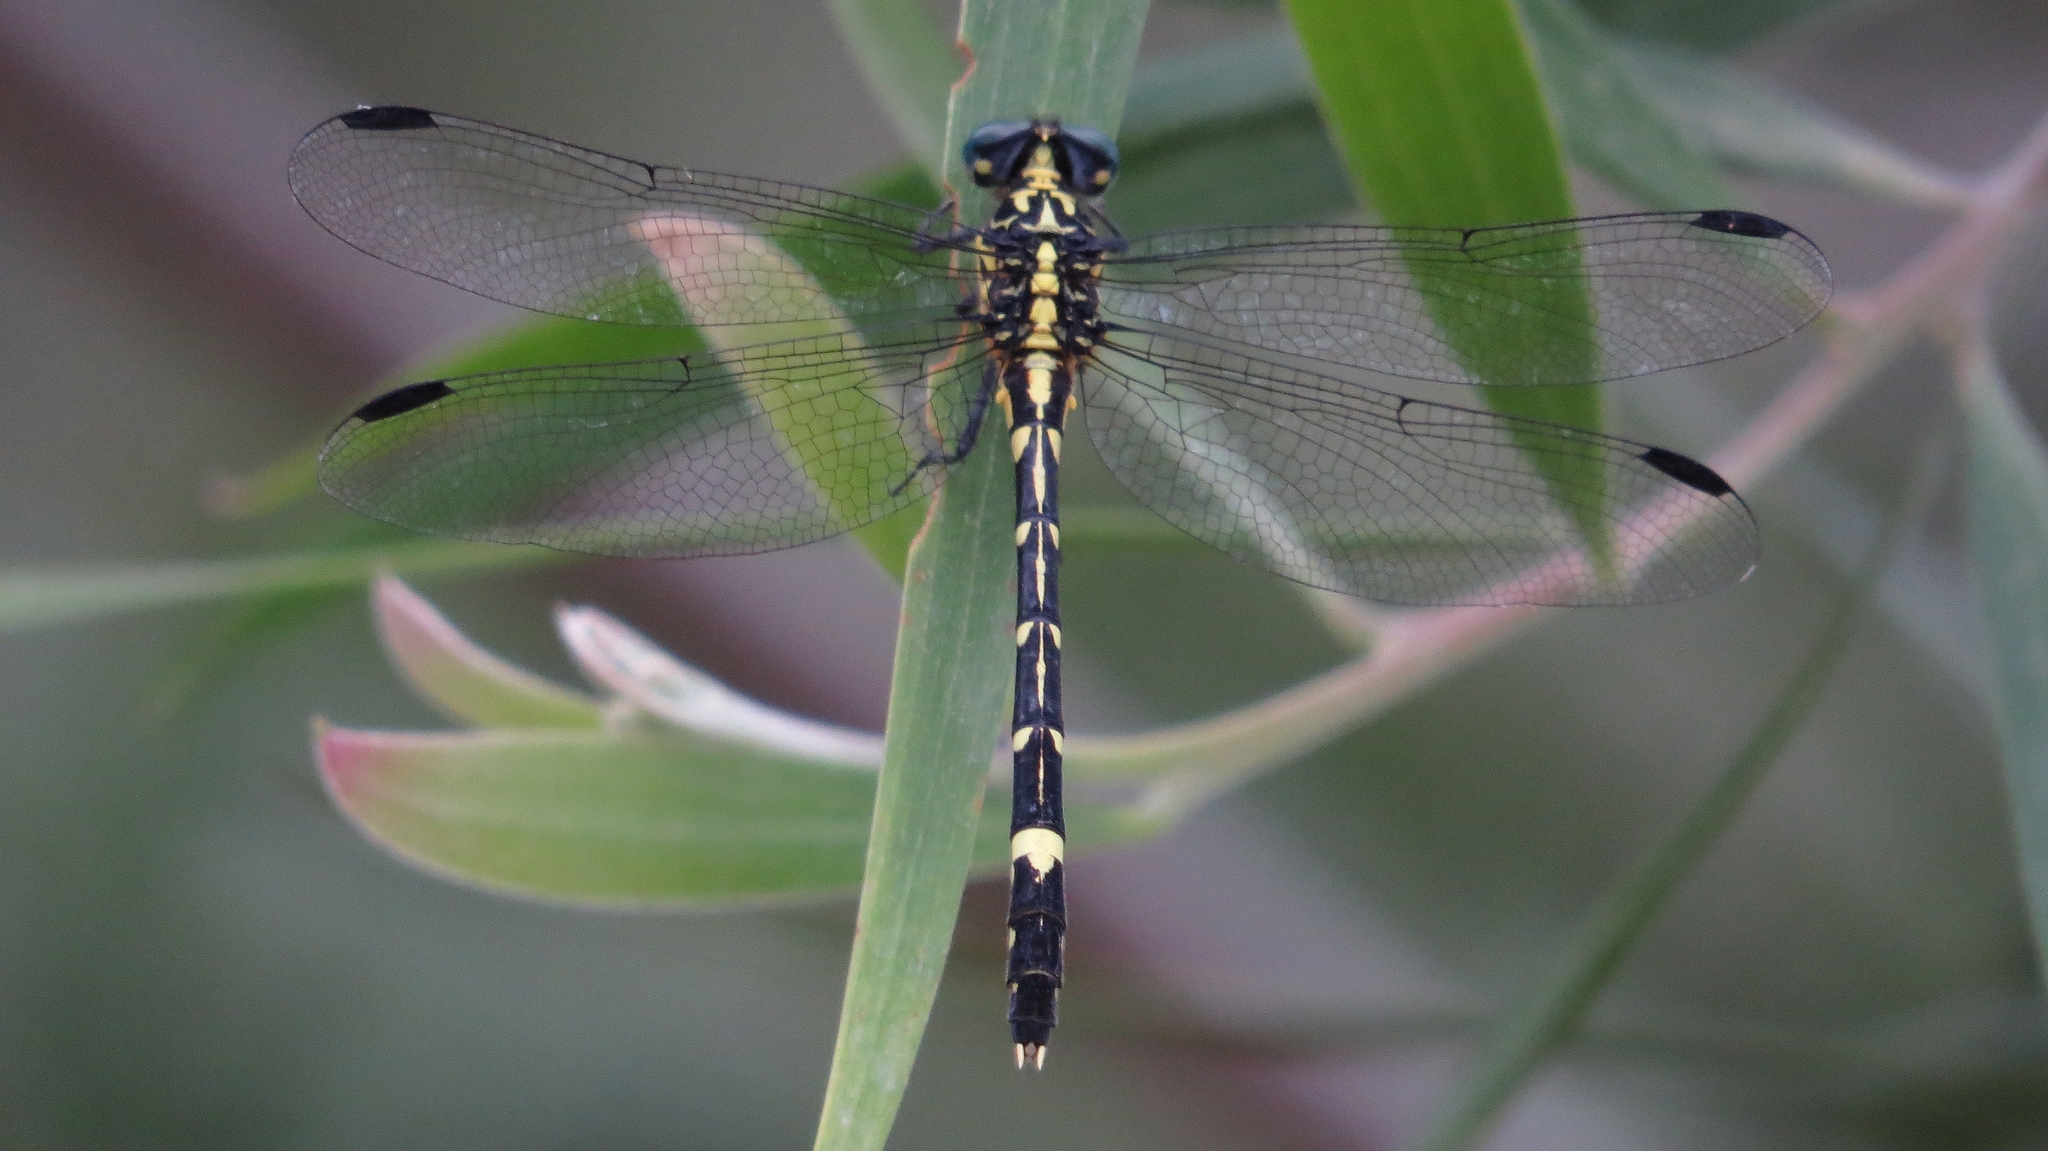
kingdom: Animalia
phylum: Arthropoda
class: Insecta
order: Odonata
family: Gomphidae
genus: Austrogomphus
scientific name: Austrogomphus amphiclitus
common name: Pale hunter
